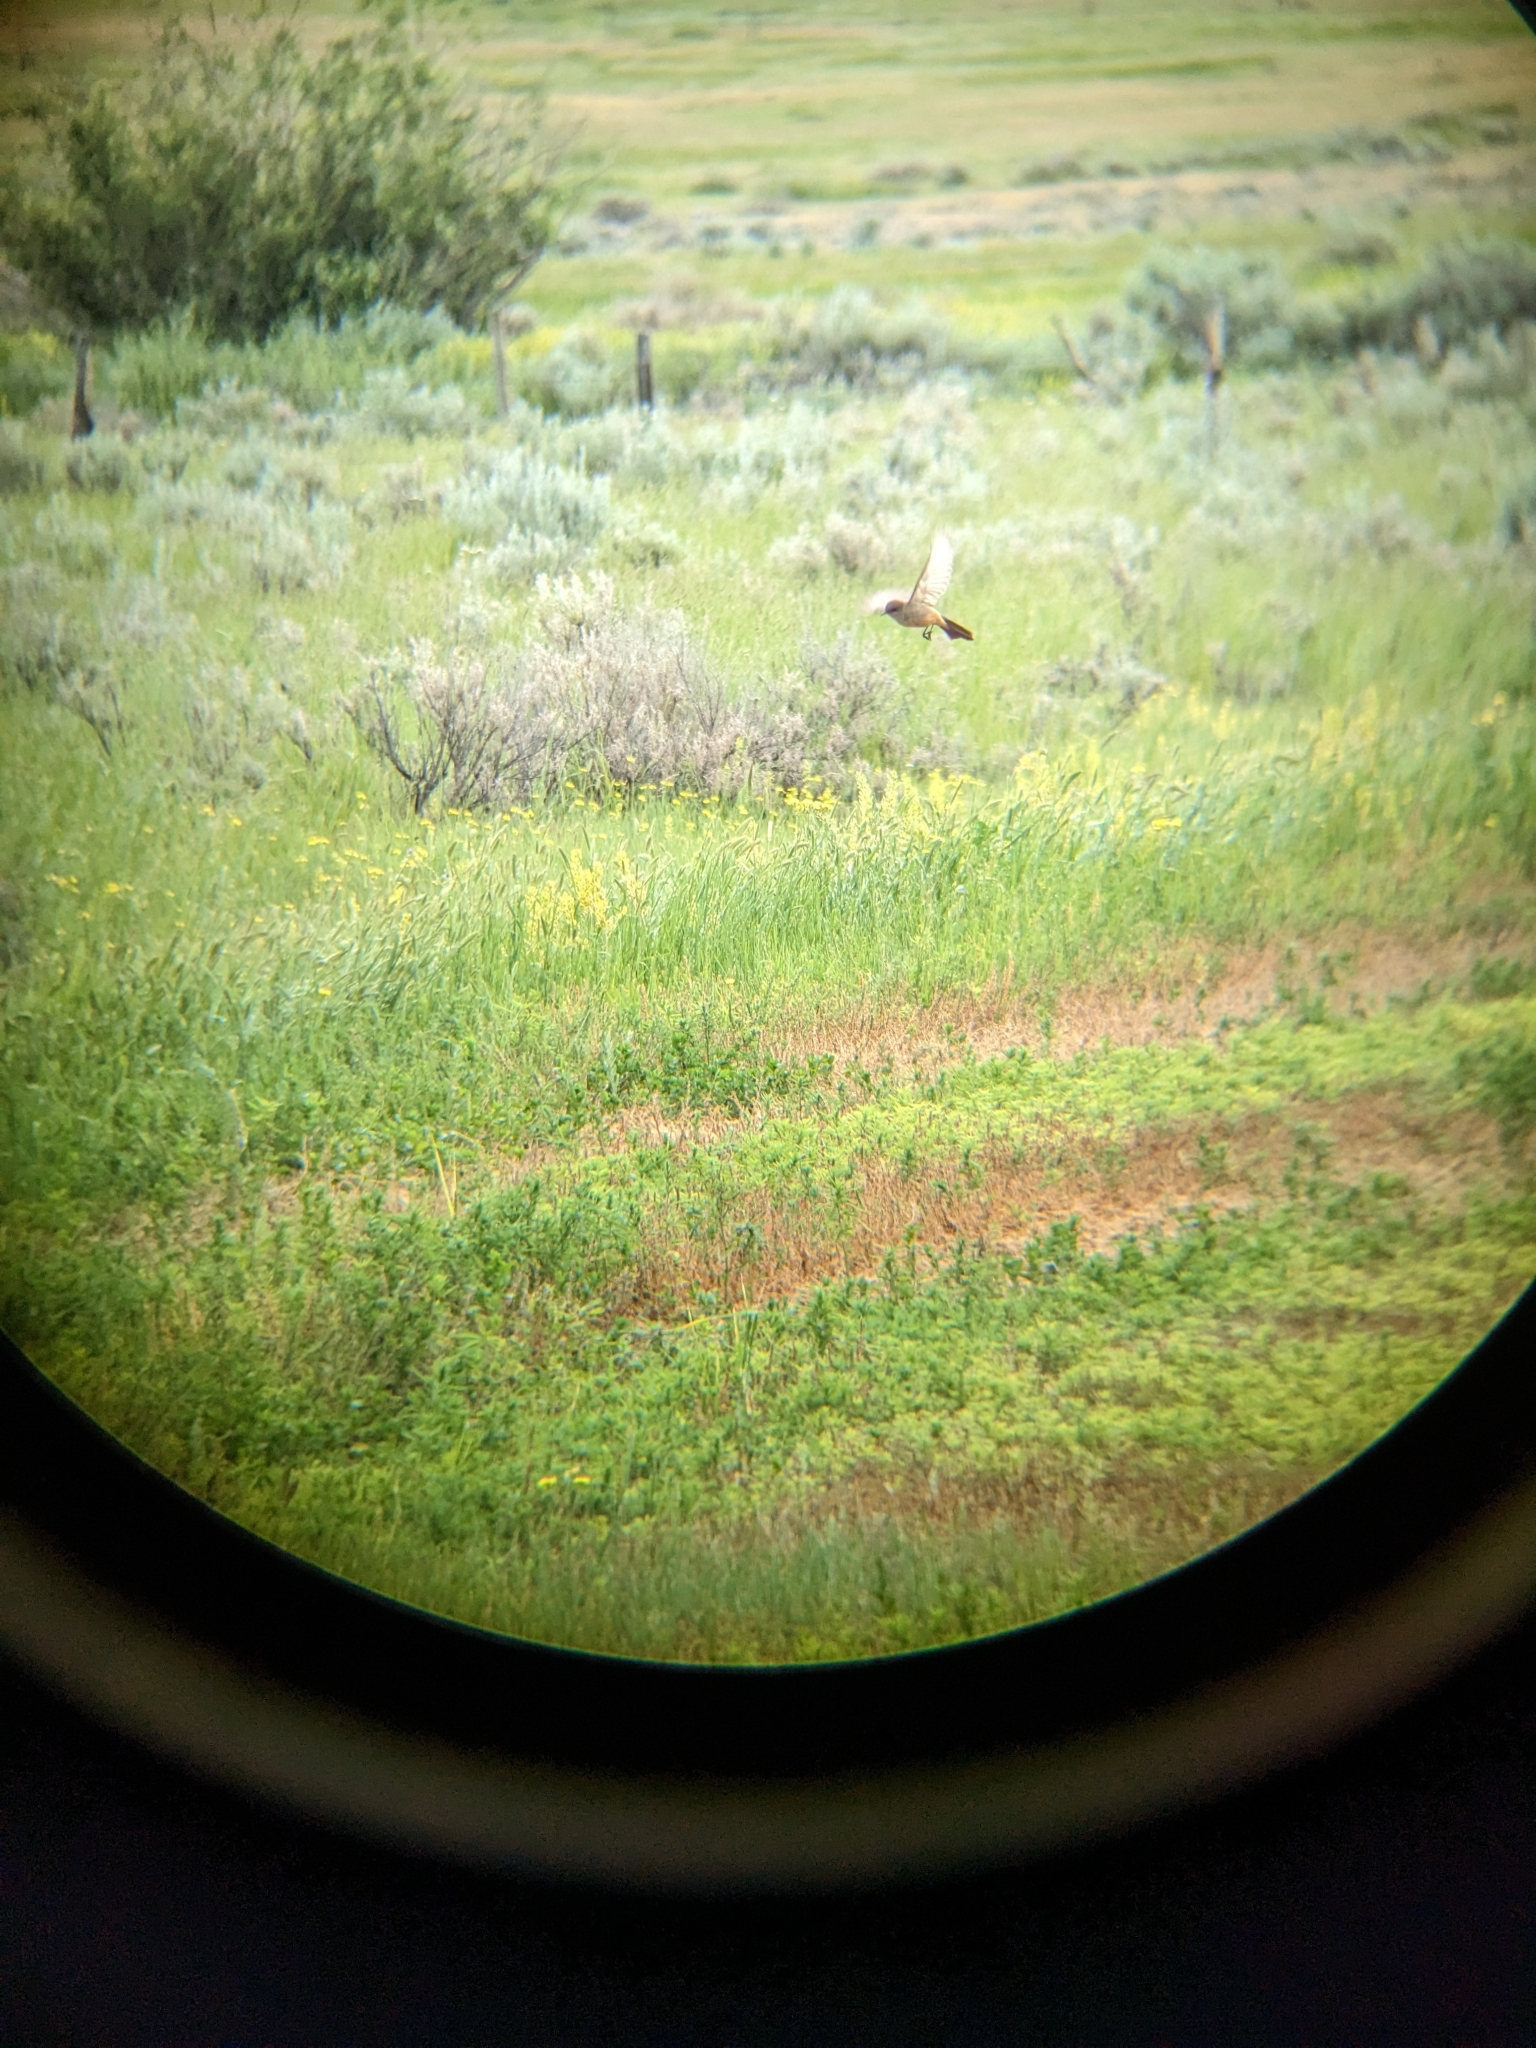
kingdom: Animalia
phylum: Chordata
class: Aves
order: Passeriformes
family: Tyrannidae
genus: Sayornis
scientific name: Sayornis saya
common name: Say's phoebe
